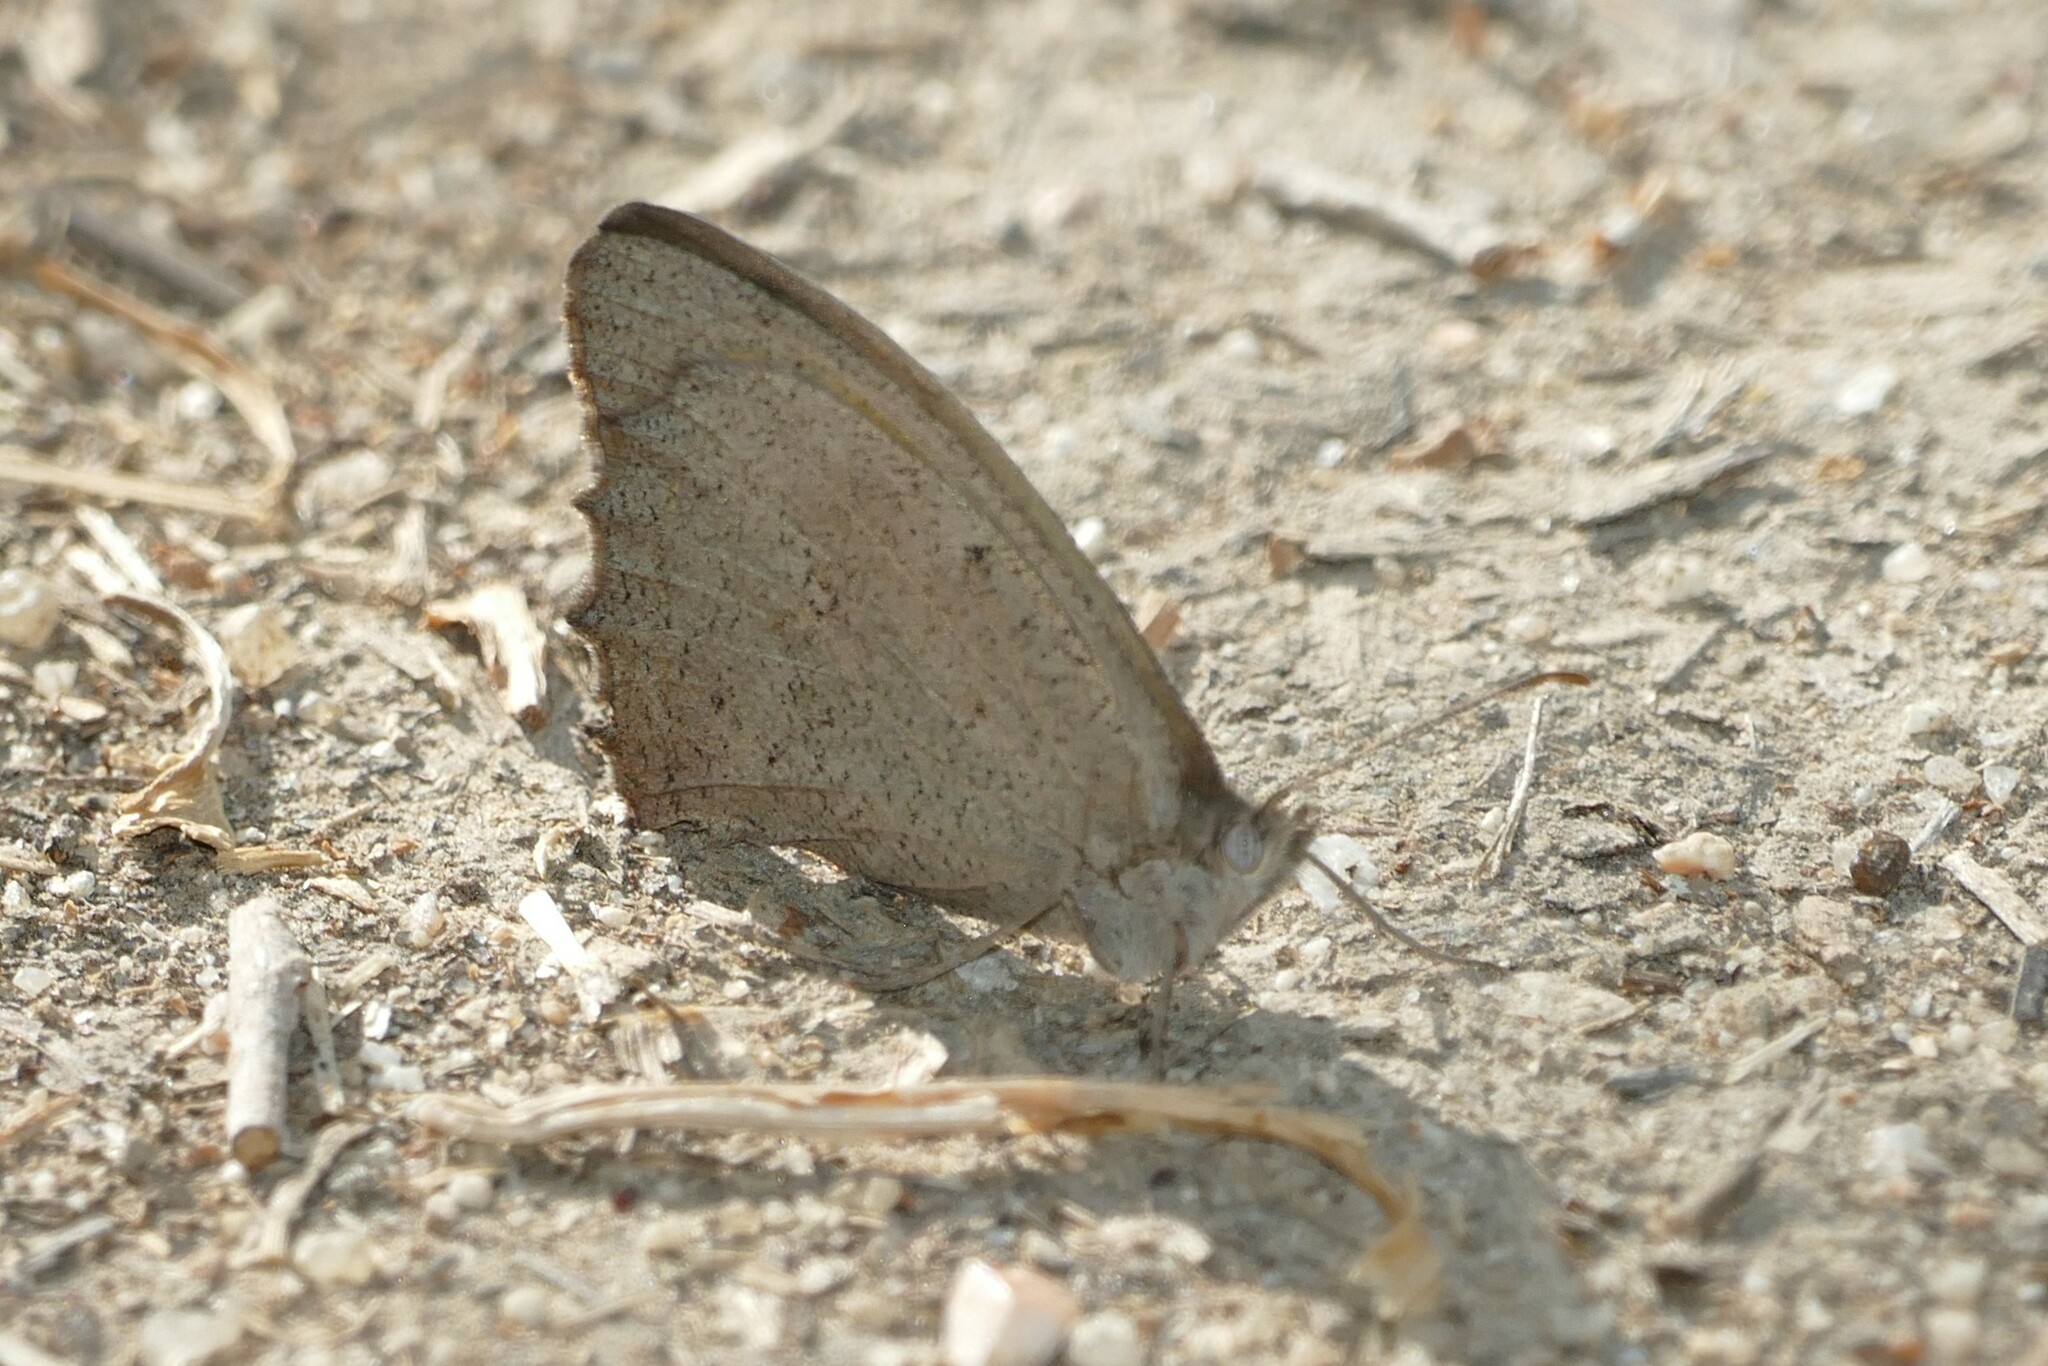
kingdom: Animalia
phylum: Arthropoda
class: Insecta
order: Lepidoptera
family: Nymphalidae
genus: Hyponephele
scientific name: Hyponephele lupinus
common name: Oriental meadow brown
